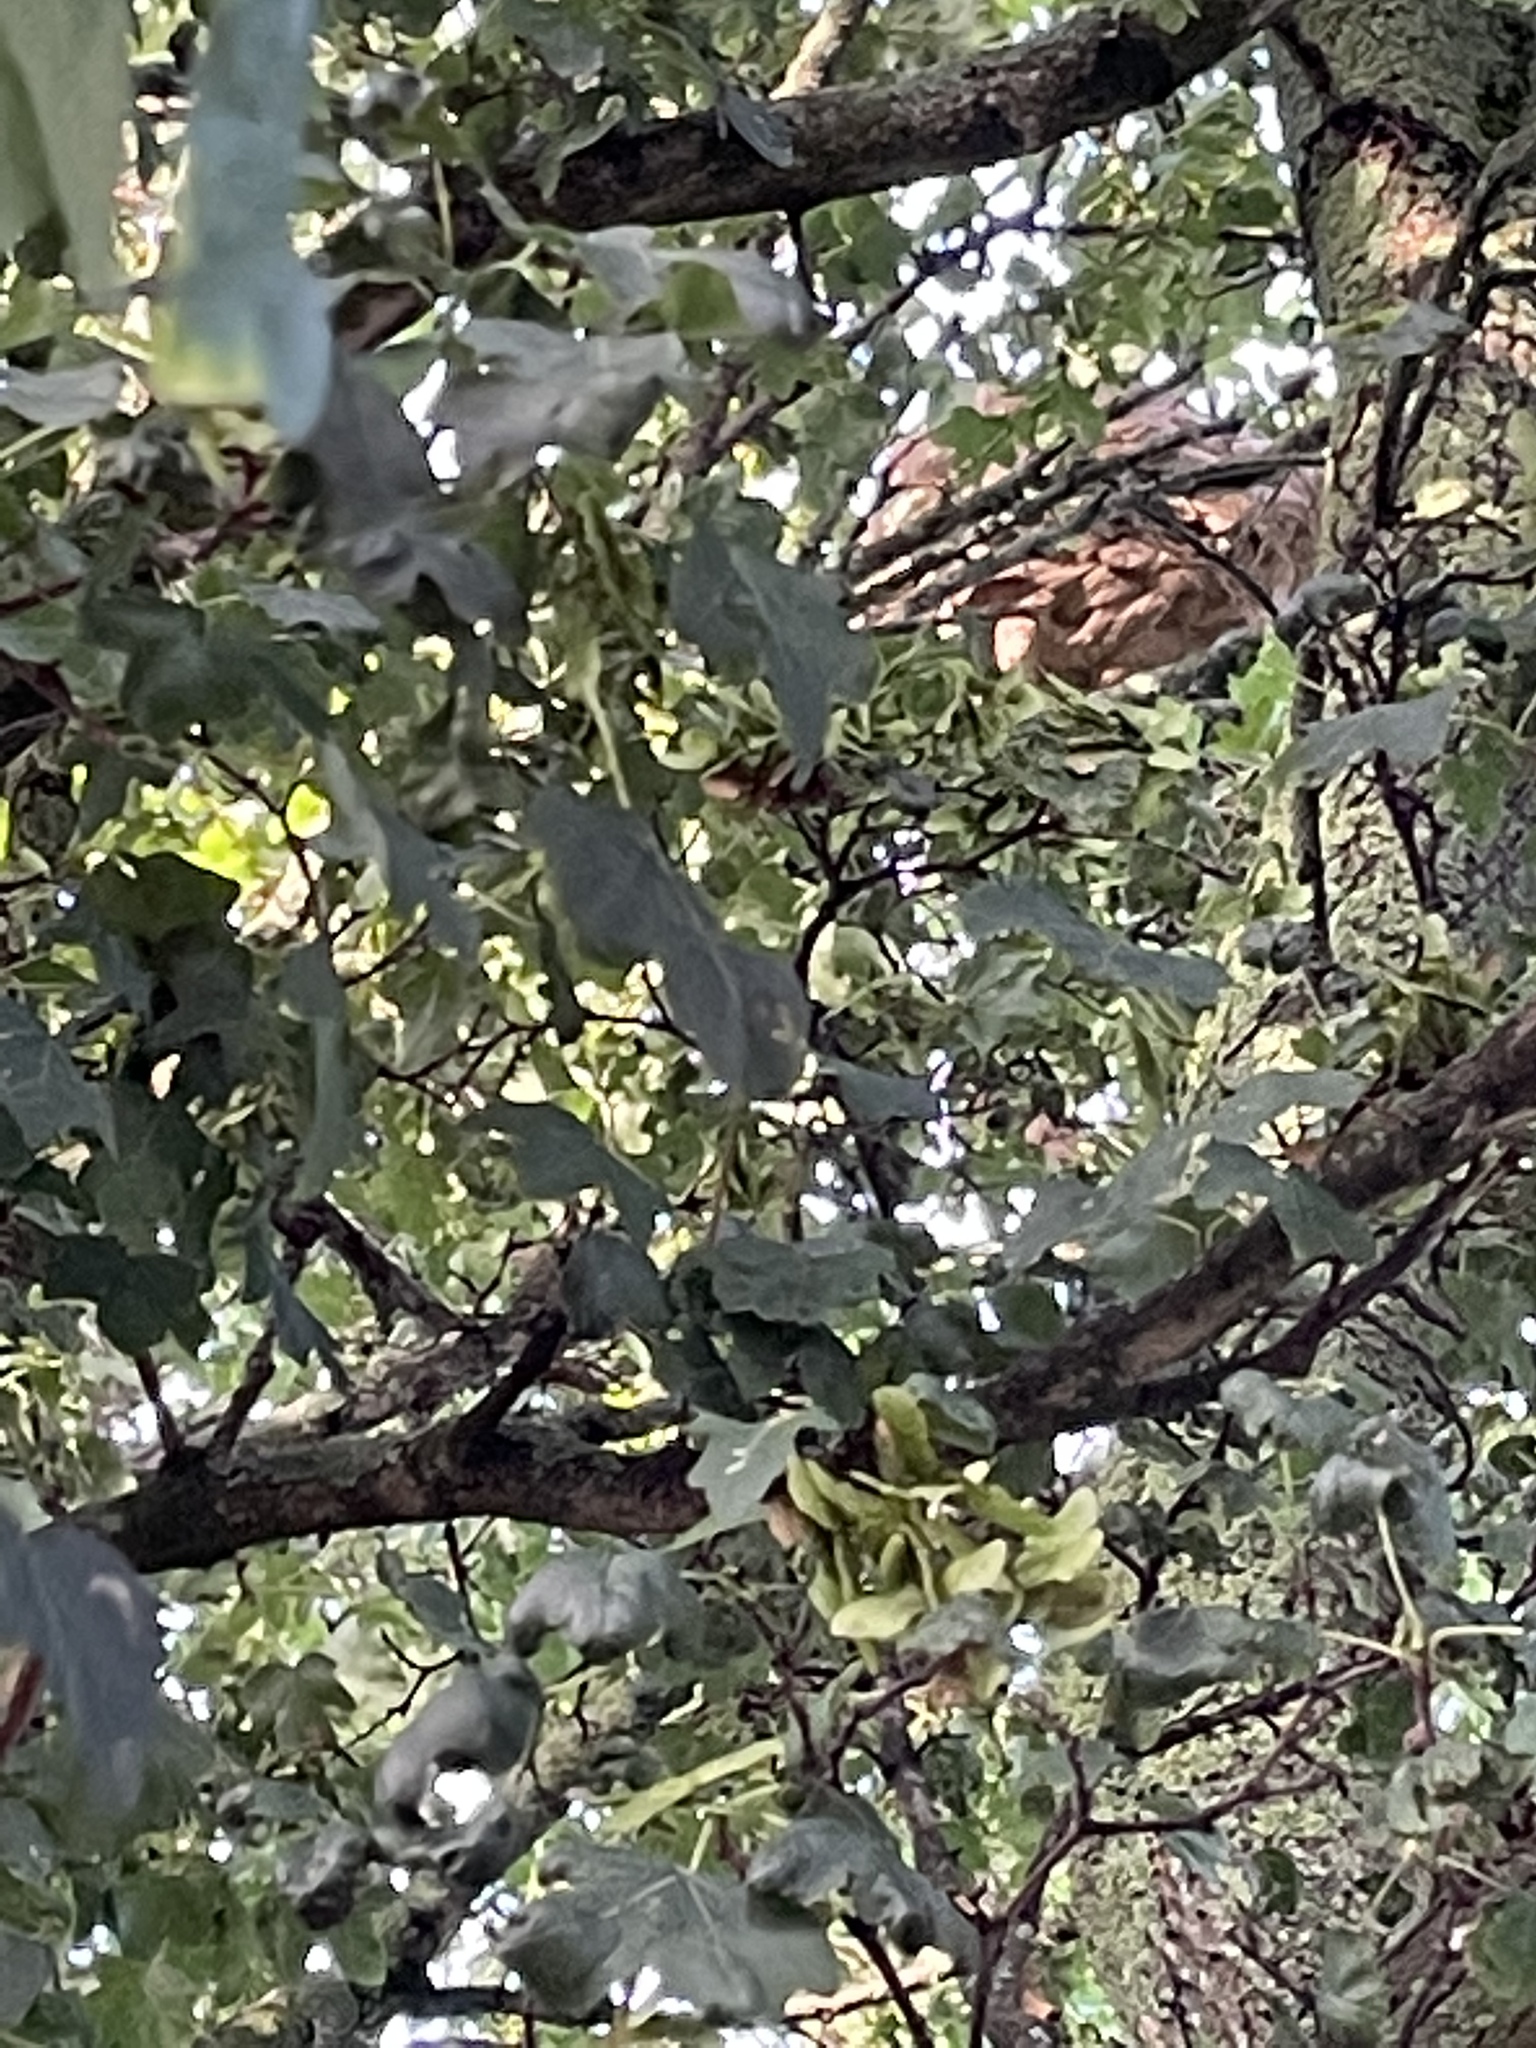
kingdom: Animalia
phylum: Arthropoda
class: Insecta
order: Hymenoptera
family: Vespidae
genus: Vespa
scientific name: Vespa velutina
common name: Asian hornet
